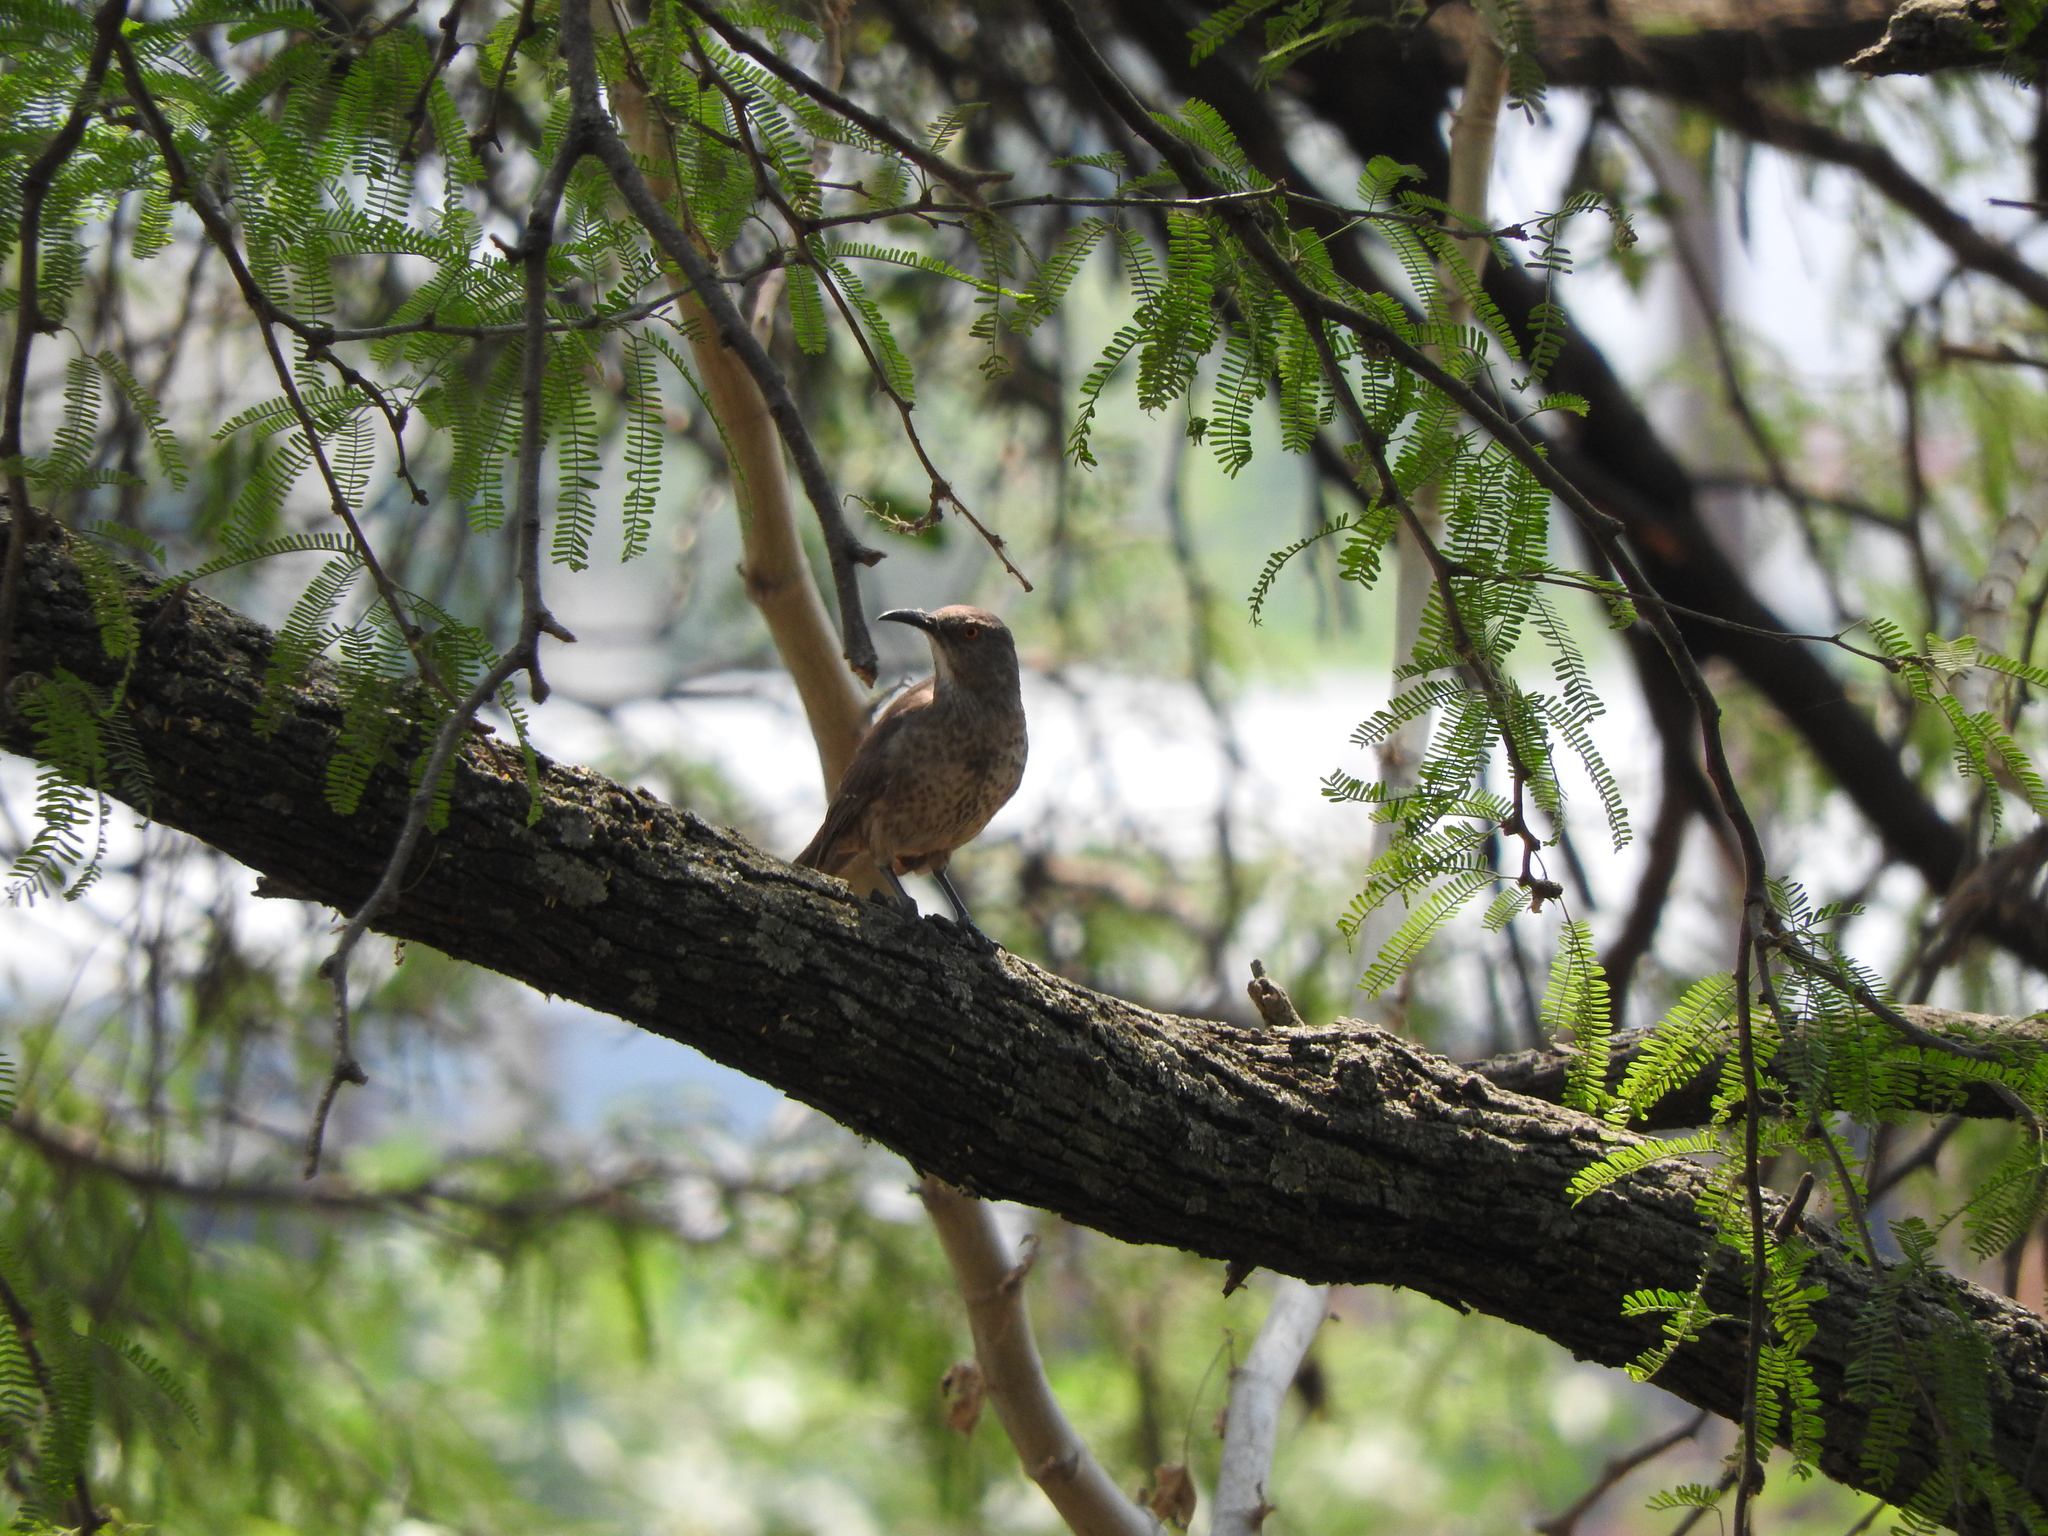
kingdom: Animalia
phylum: Chordata
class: Aves
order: Passeriformes
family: Mimidae
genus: Toxostoma
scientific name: Toxostoma curvirostre
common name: Curve-billed thrasher
